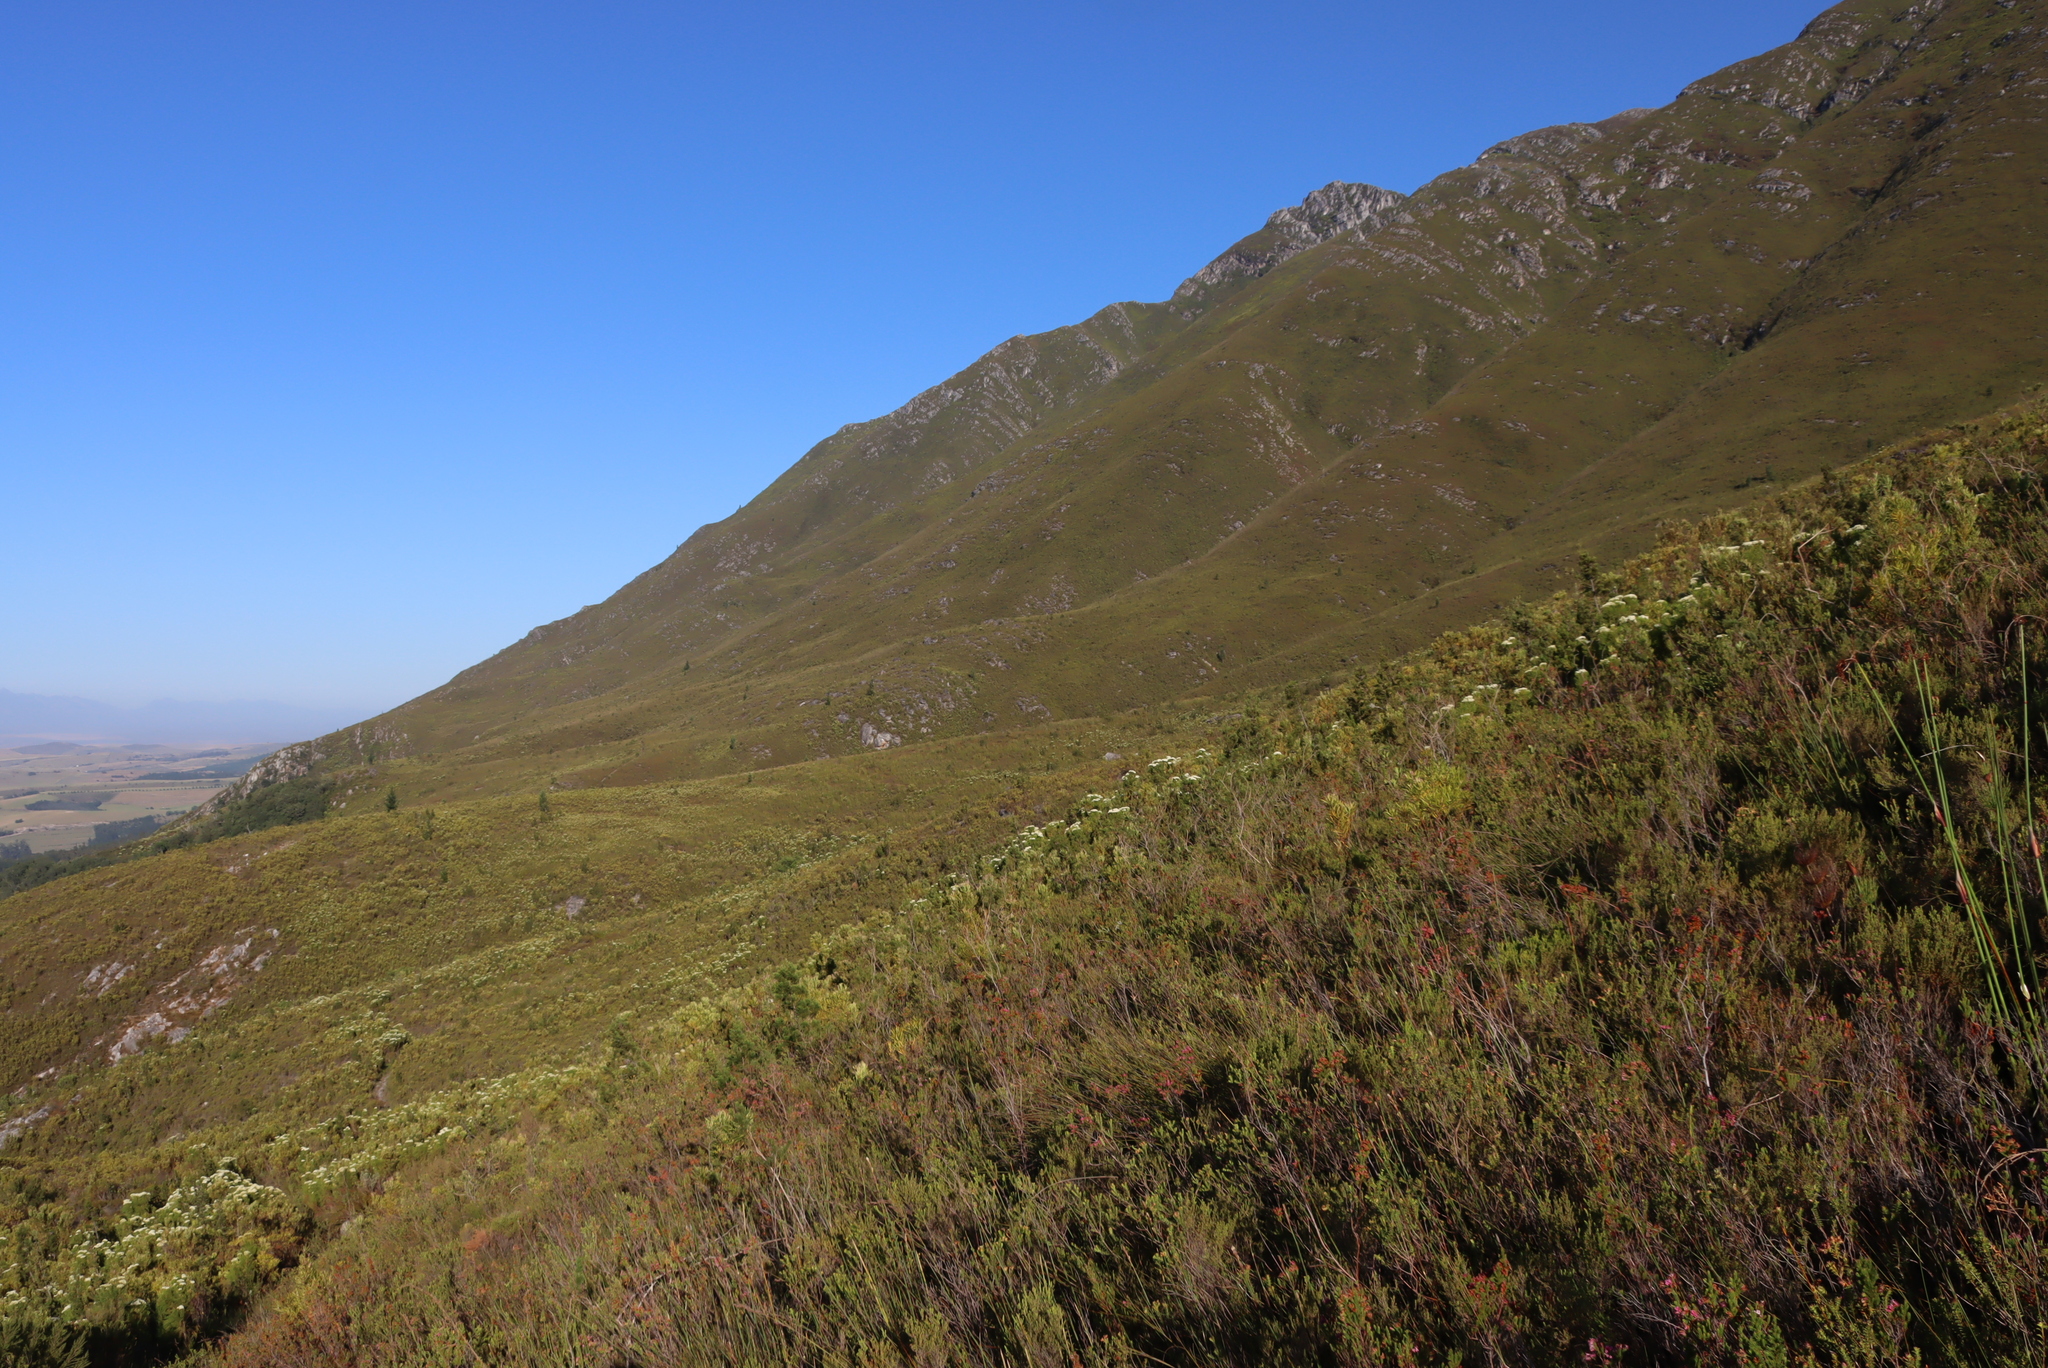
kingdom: Plantae
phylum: Tracheophyta
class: Pinopsida
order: Pinales
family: Cupressaceae
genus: Widdringtonia
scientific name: Widdringtonia nodiflora
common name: Cape cypress
